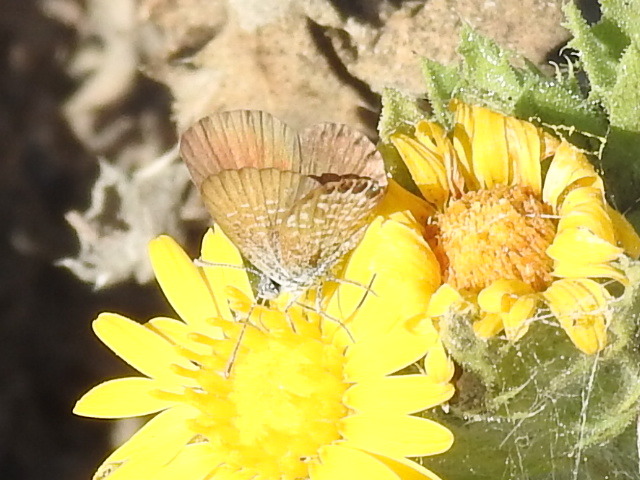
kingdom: Animalia
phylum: Arthropoda
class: Insecta
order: Lepidoptera
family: Lycaenidae
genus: Brephidium
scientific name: Brephidium exilis
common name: Pygmy blue
